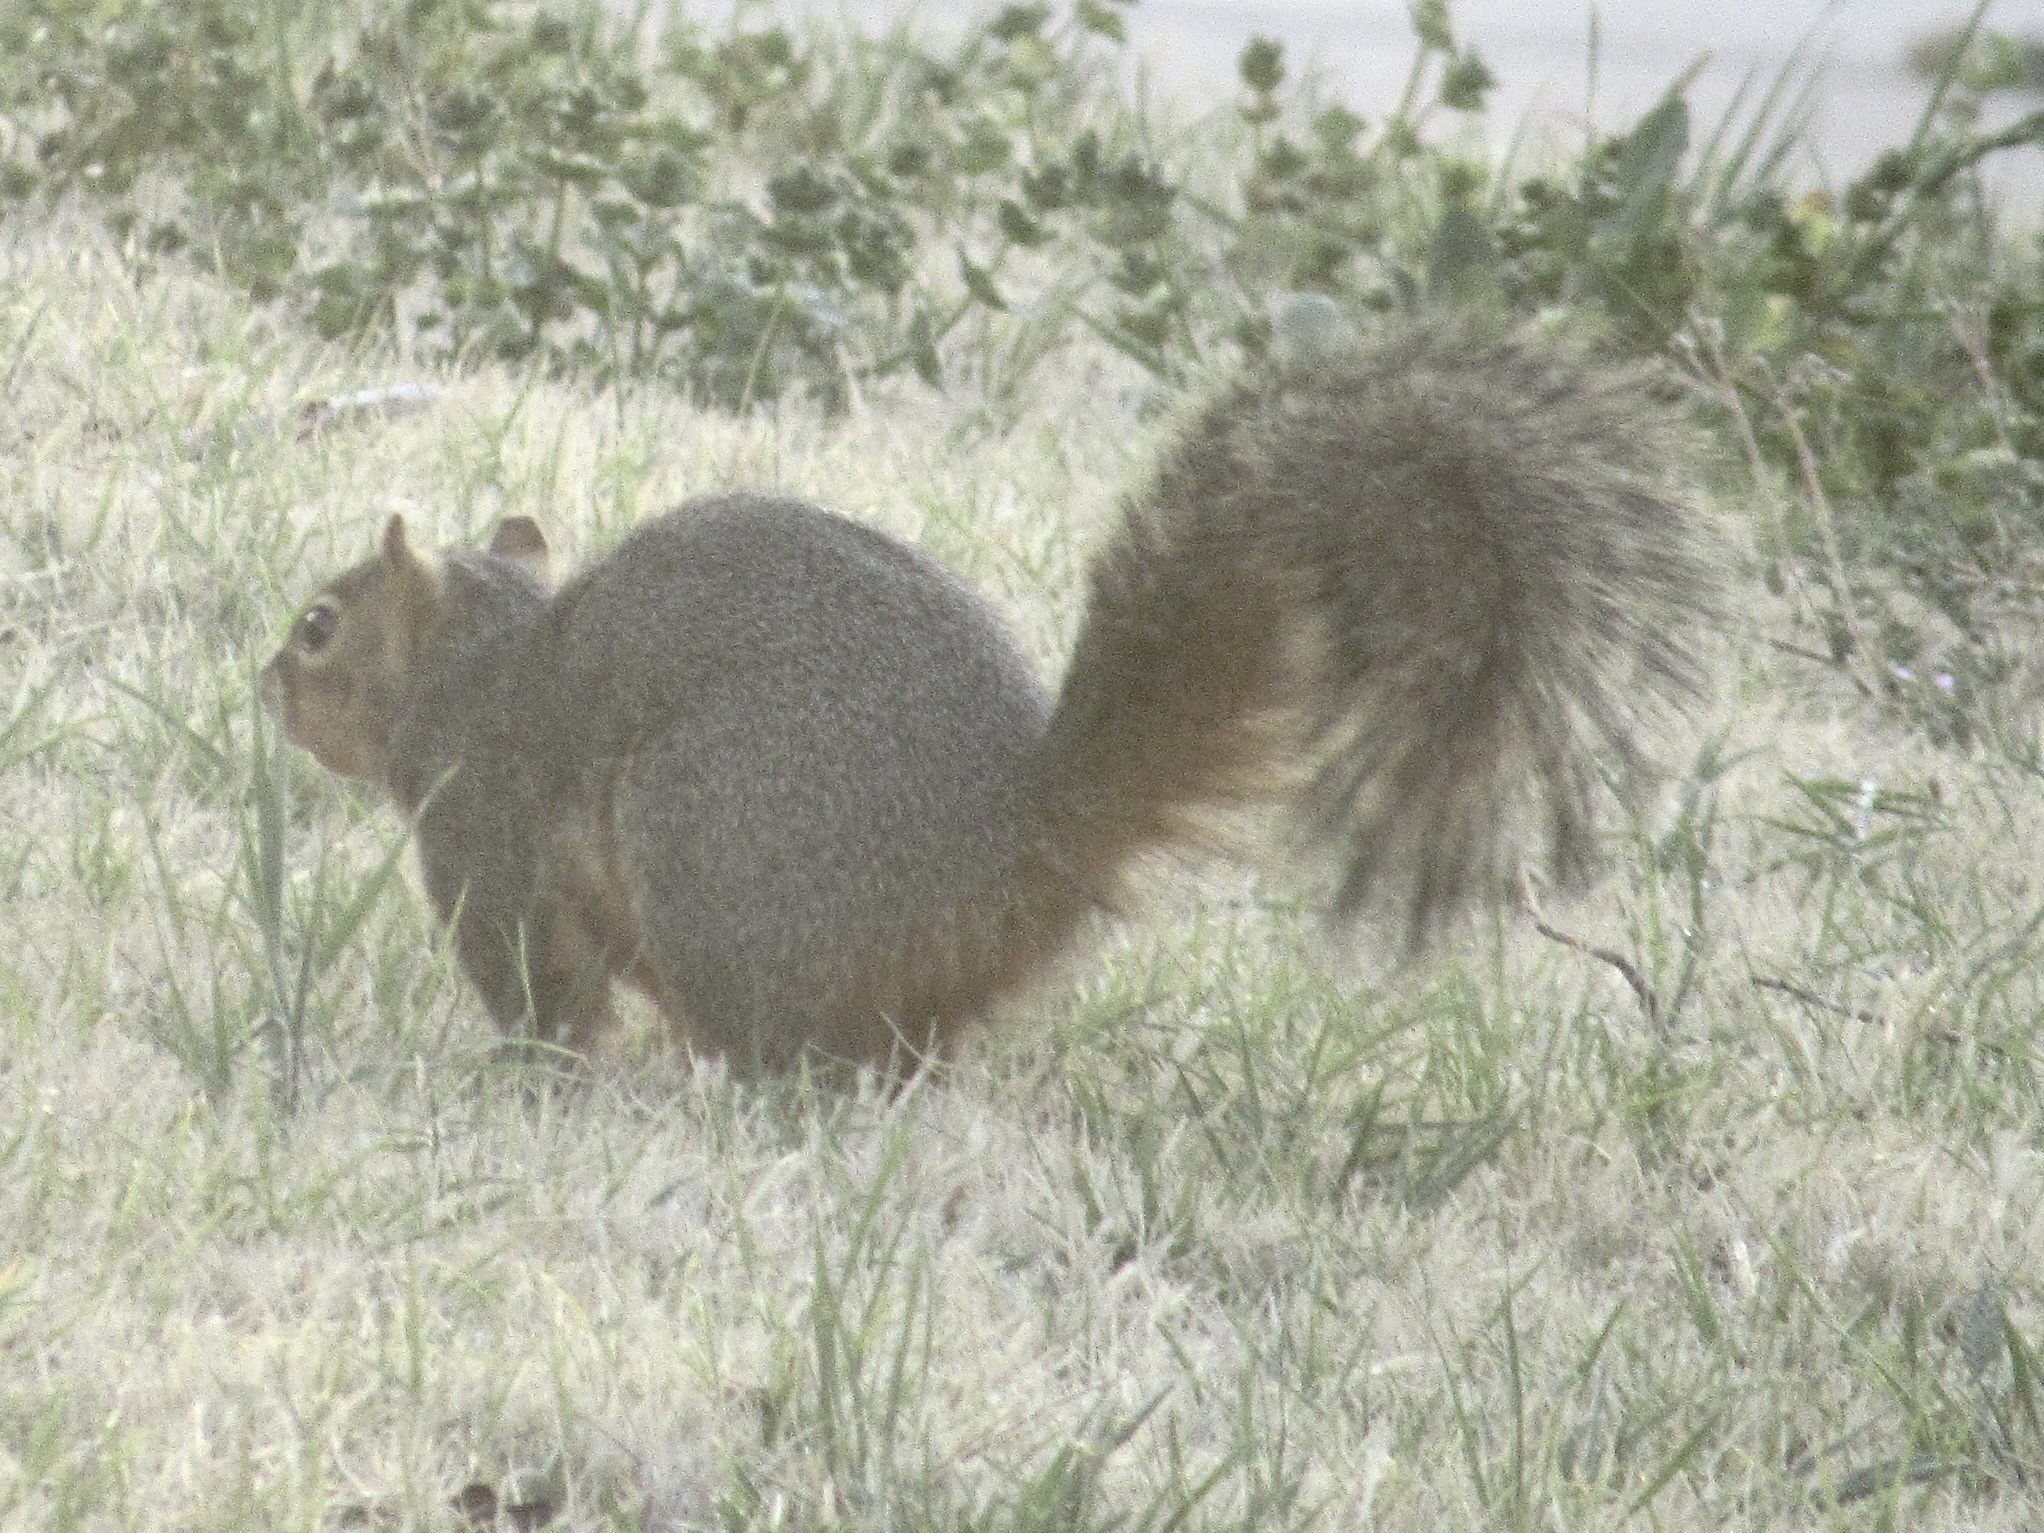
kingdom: Animalia
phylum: Chordata
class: Mammalia
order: Rodentia
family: Sciuridae
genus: Sciurus
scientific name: Sciurus niger
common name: Fox squirrel
